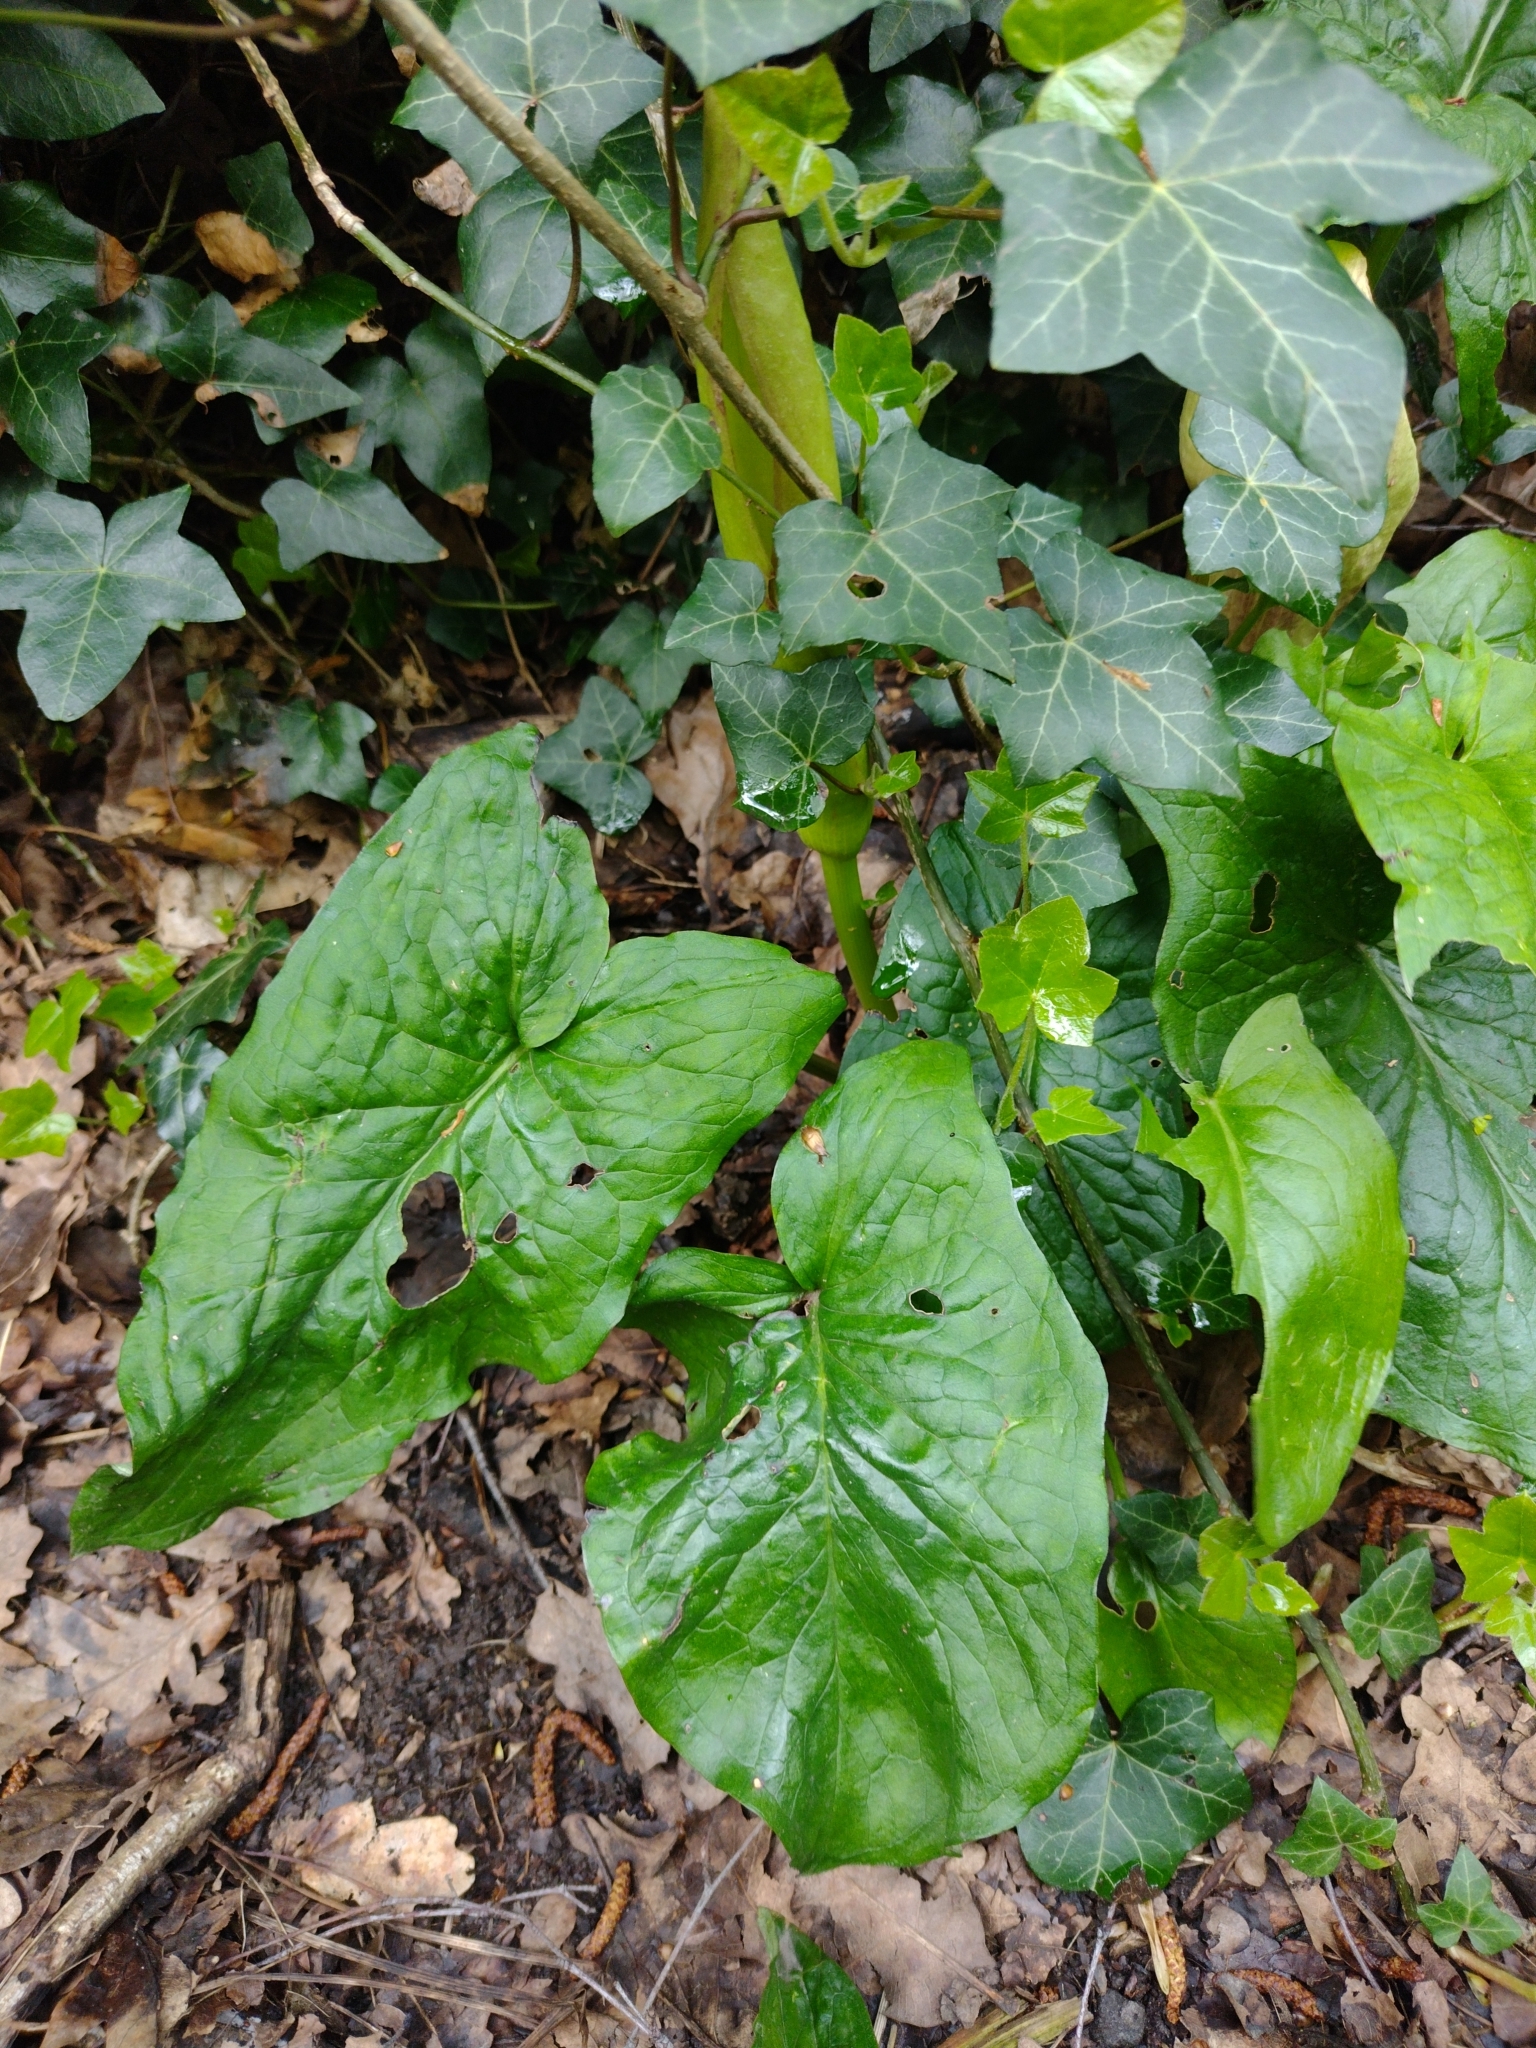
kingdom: Plantae
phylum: Tracheophyta
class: Liliopsida
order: Alismatales
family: Araceae
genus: Arum
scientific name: Arum maculatum
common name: Lords-and-ladies
